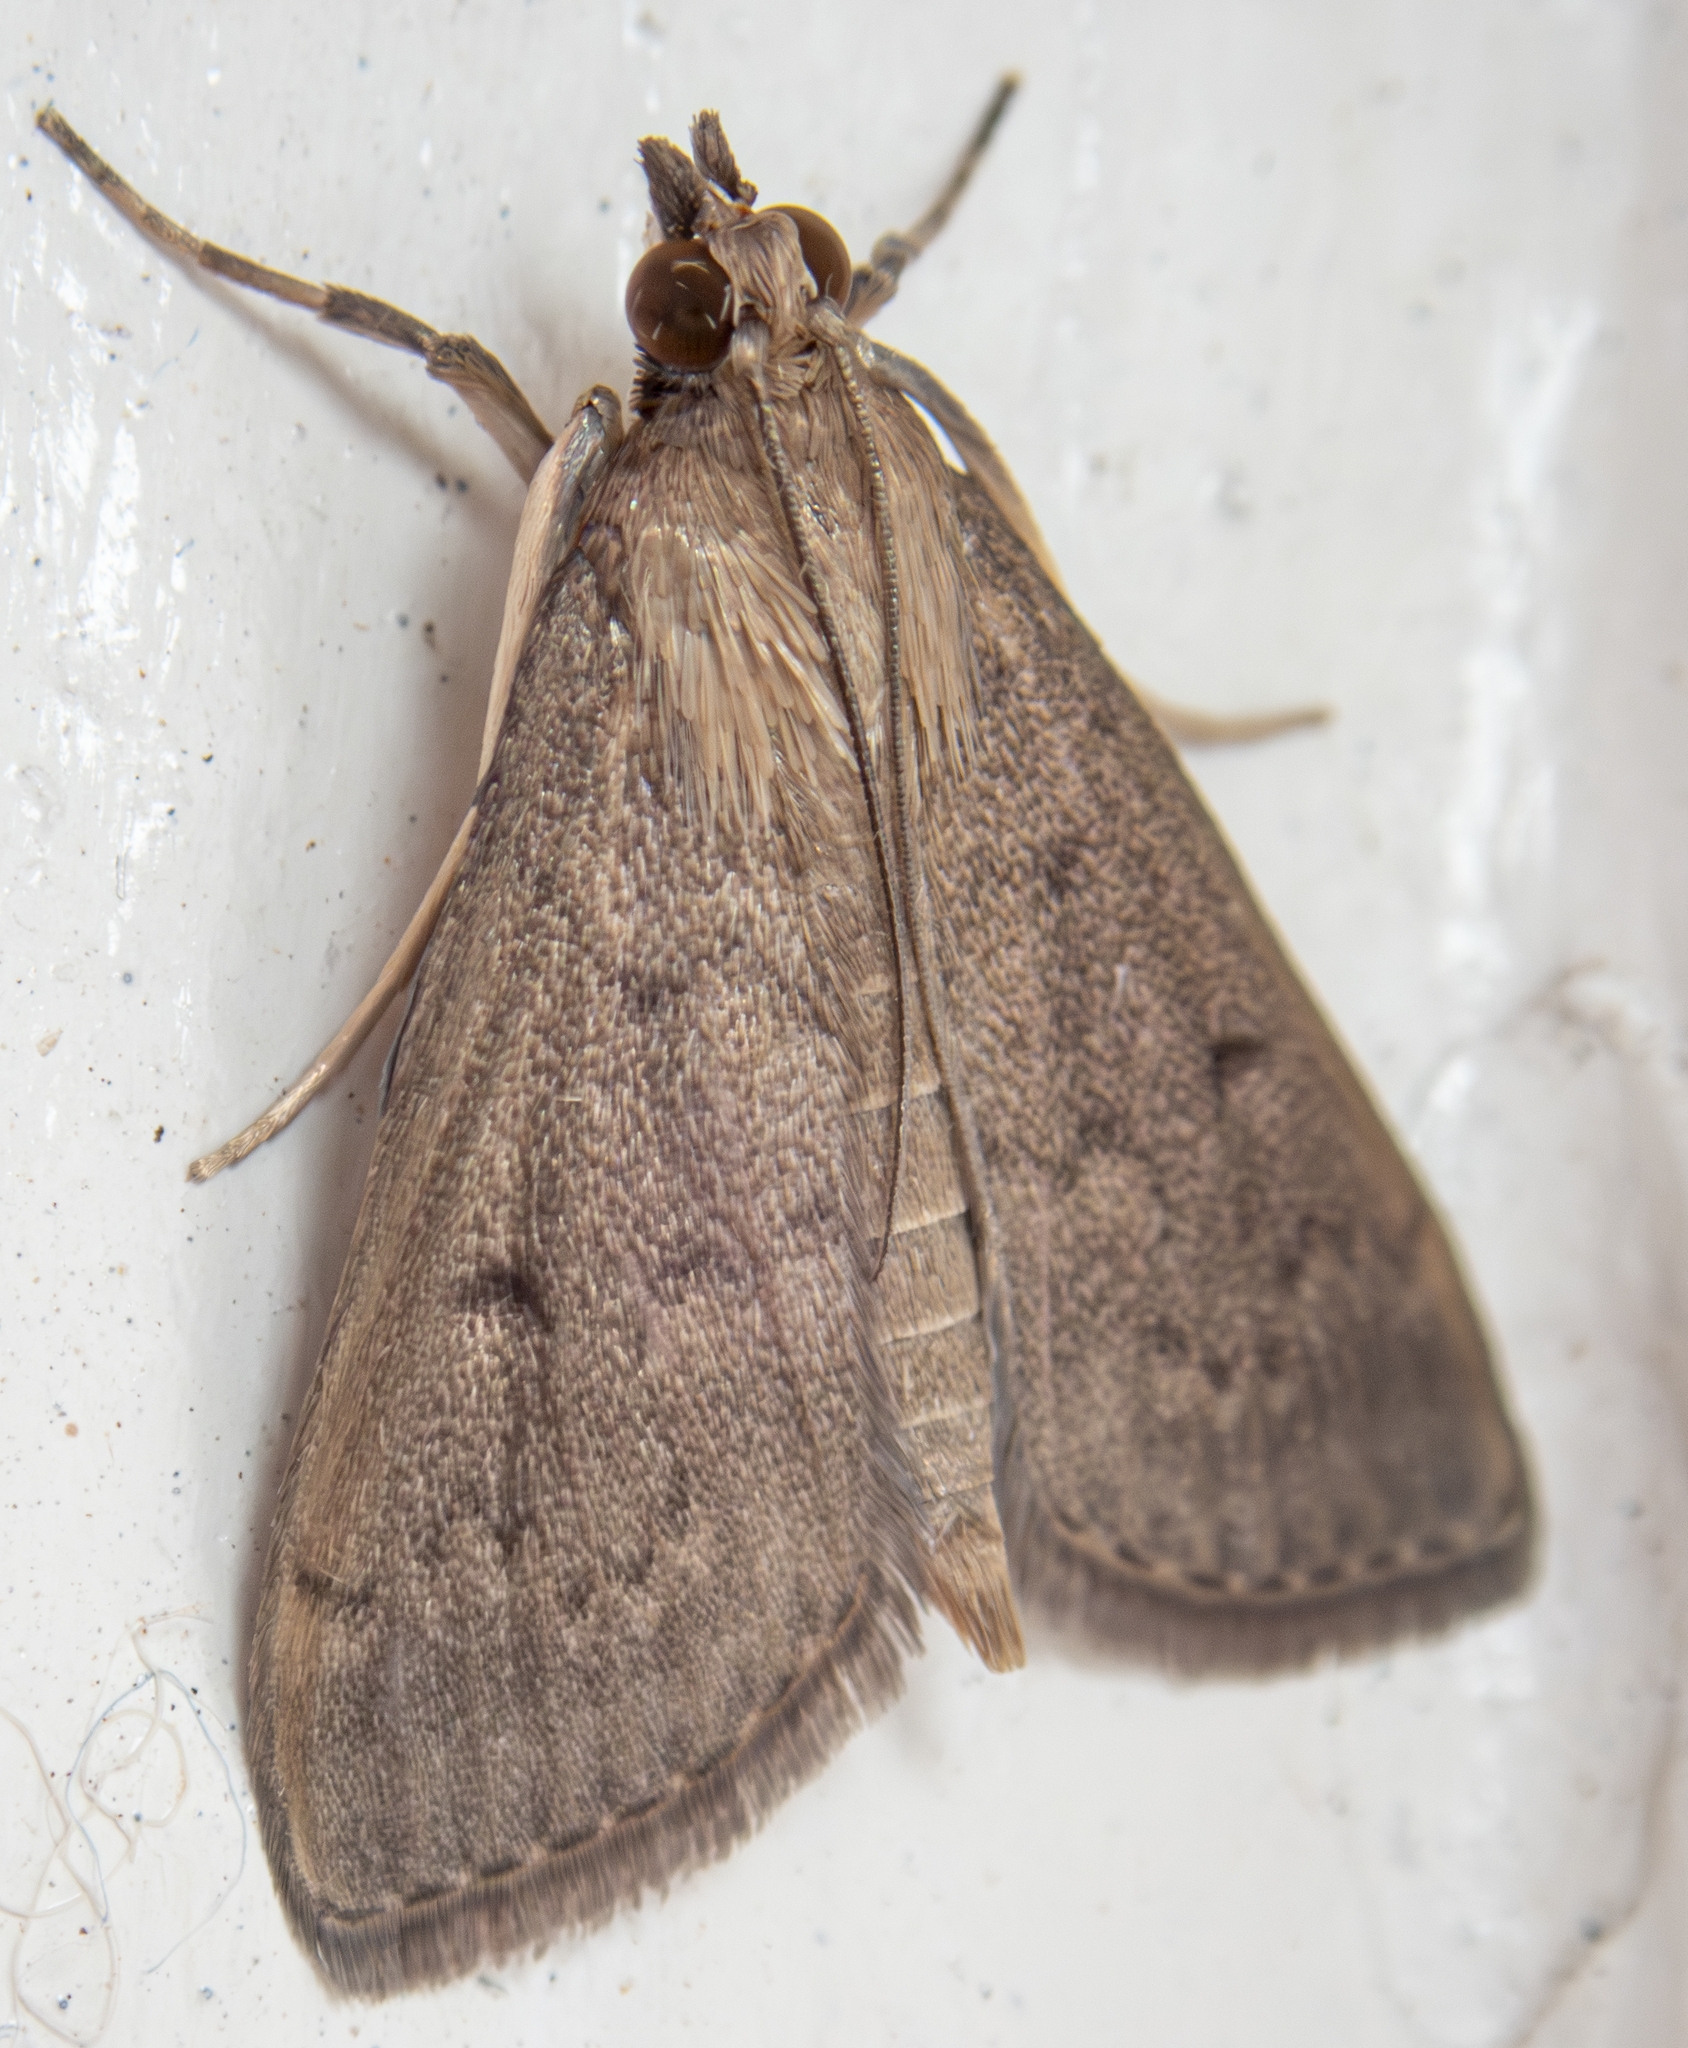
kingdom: Animalia
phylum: Arthropoda
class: Insecta
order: Lepidoptera
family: Crambidae
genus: Herpetogramma
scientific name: Herpetogramma licarsisalis
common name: Grass webworm
